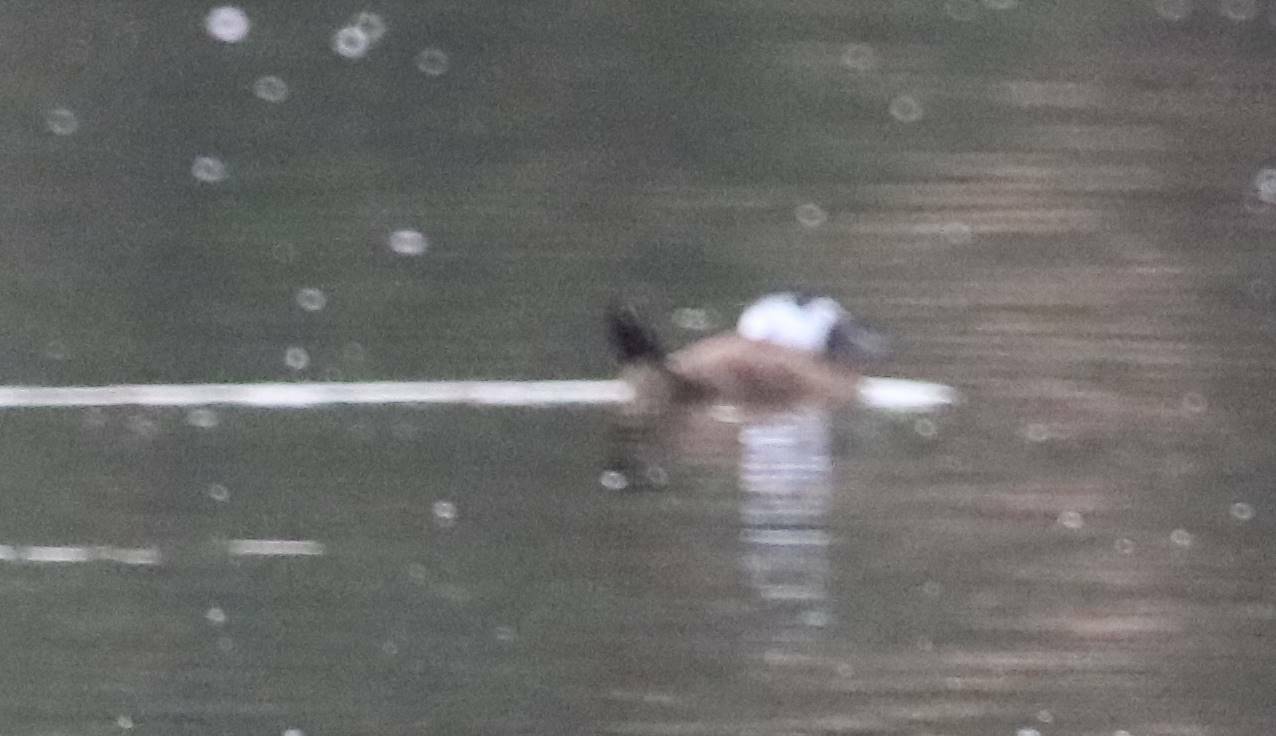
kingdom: Animalia
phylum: Chordata
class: Aves
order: Anseriformes
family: Anatidae
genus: Oxyura
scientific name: Oxyura leucocephala
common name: White-headed duck
